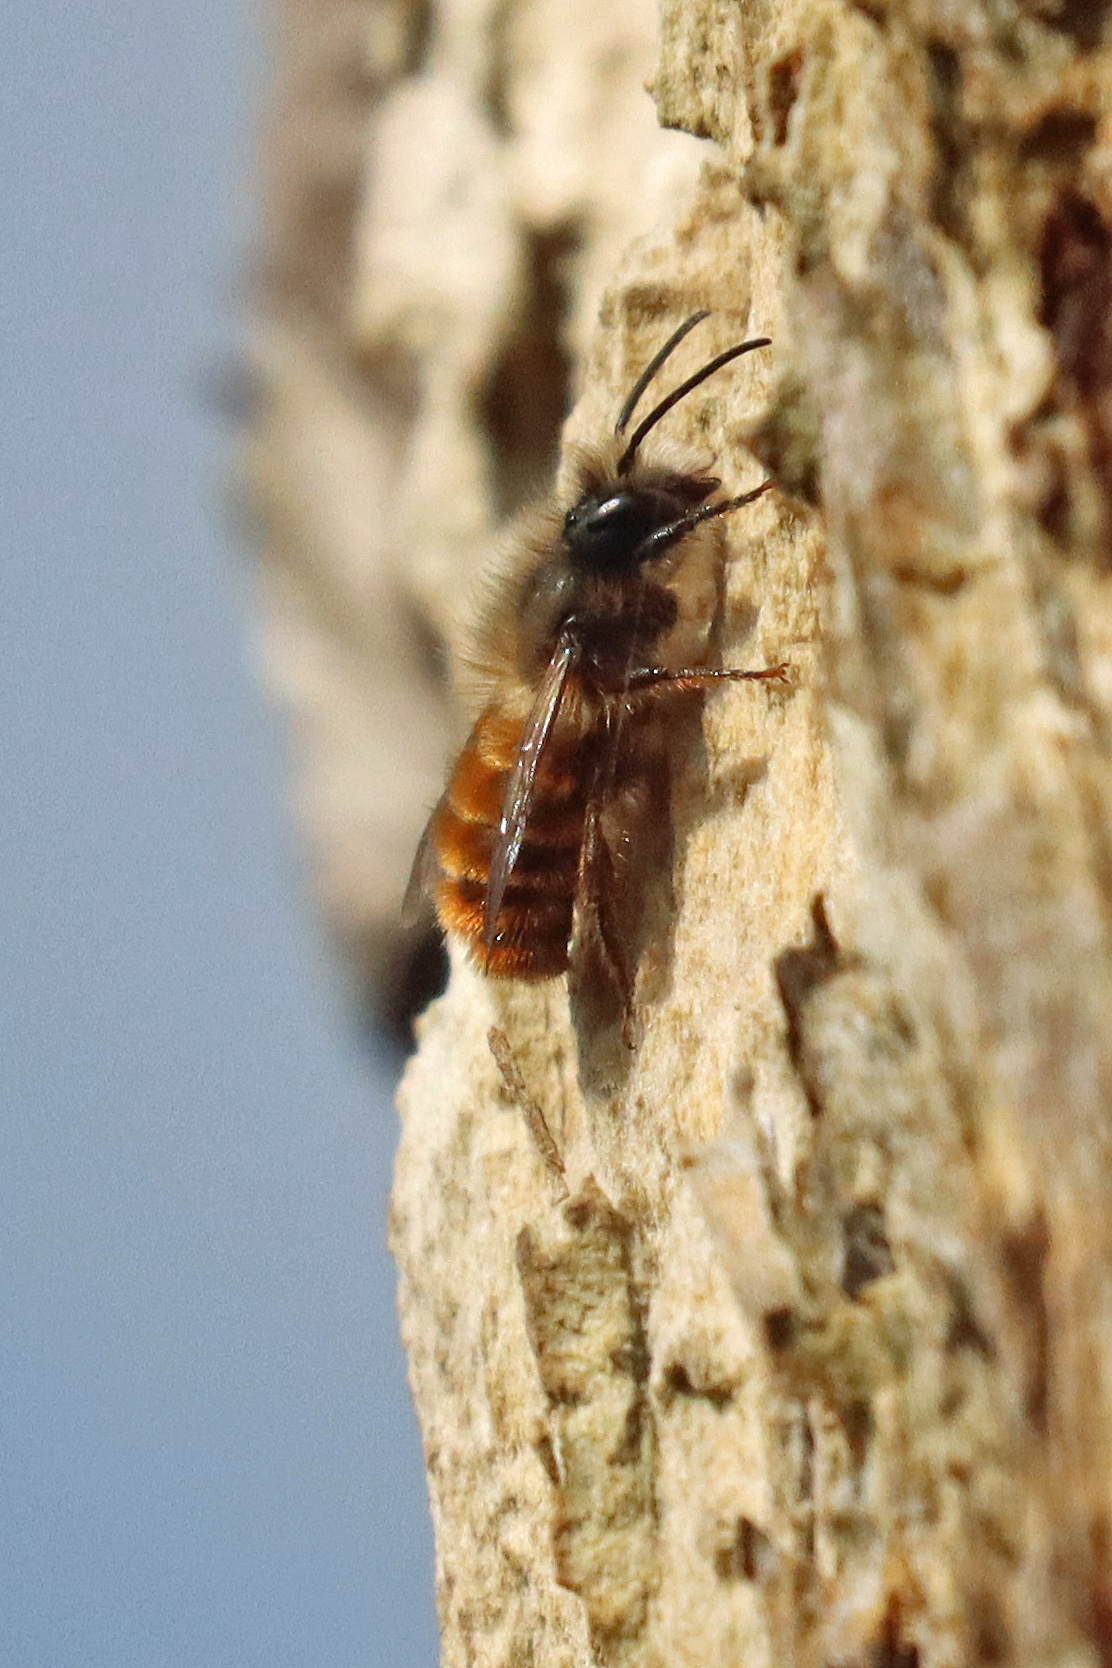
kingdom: Animalia
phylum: Arthropoda
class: Insecta
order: Hymenoptera
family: Megachilidae
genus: Osmia
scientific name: Osmia bicornis
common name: Red mason bee
